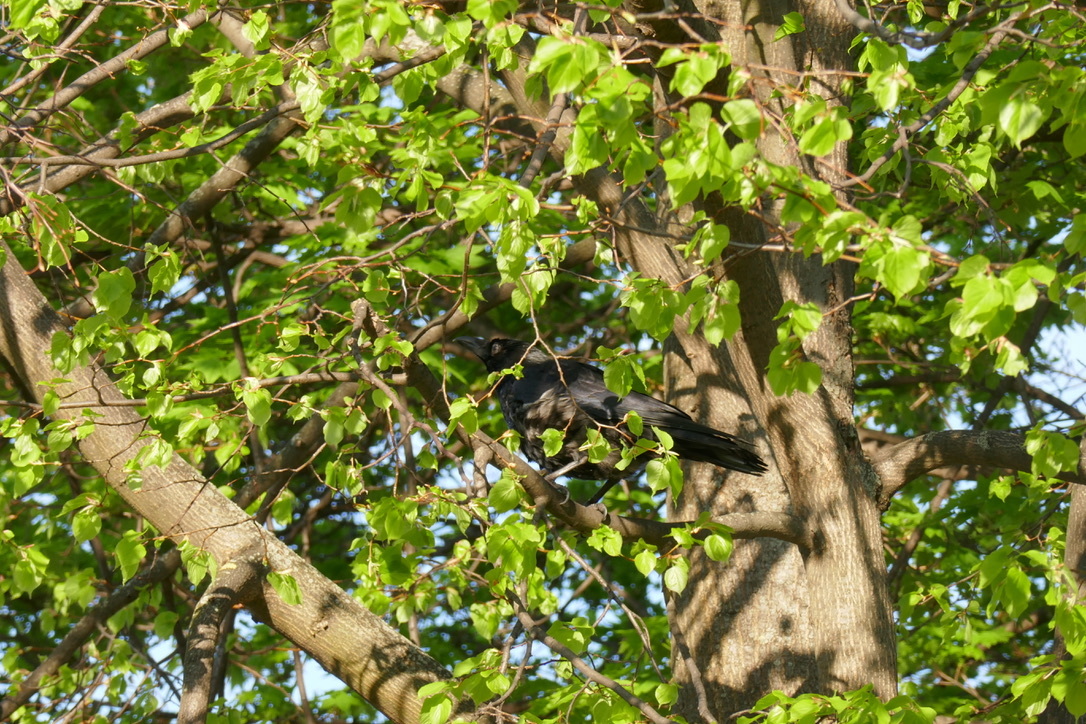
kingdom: Animalia
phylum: Chordata
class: Aves
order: Passeriformes
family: Corvidae
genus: Corvus
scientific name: Corvus corone
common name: Carrion crow
